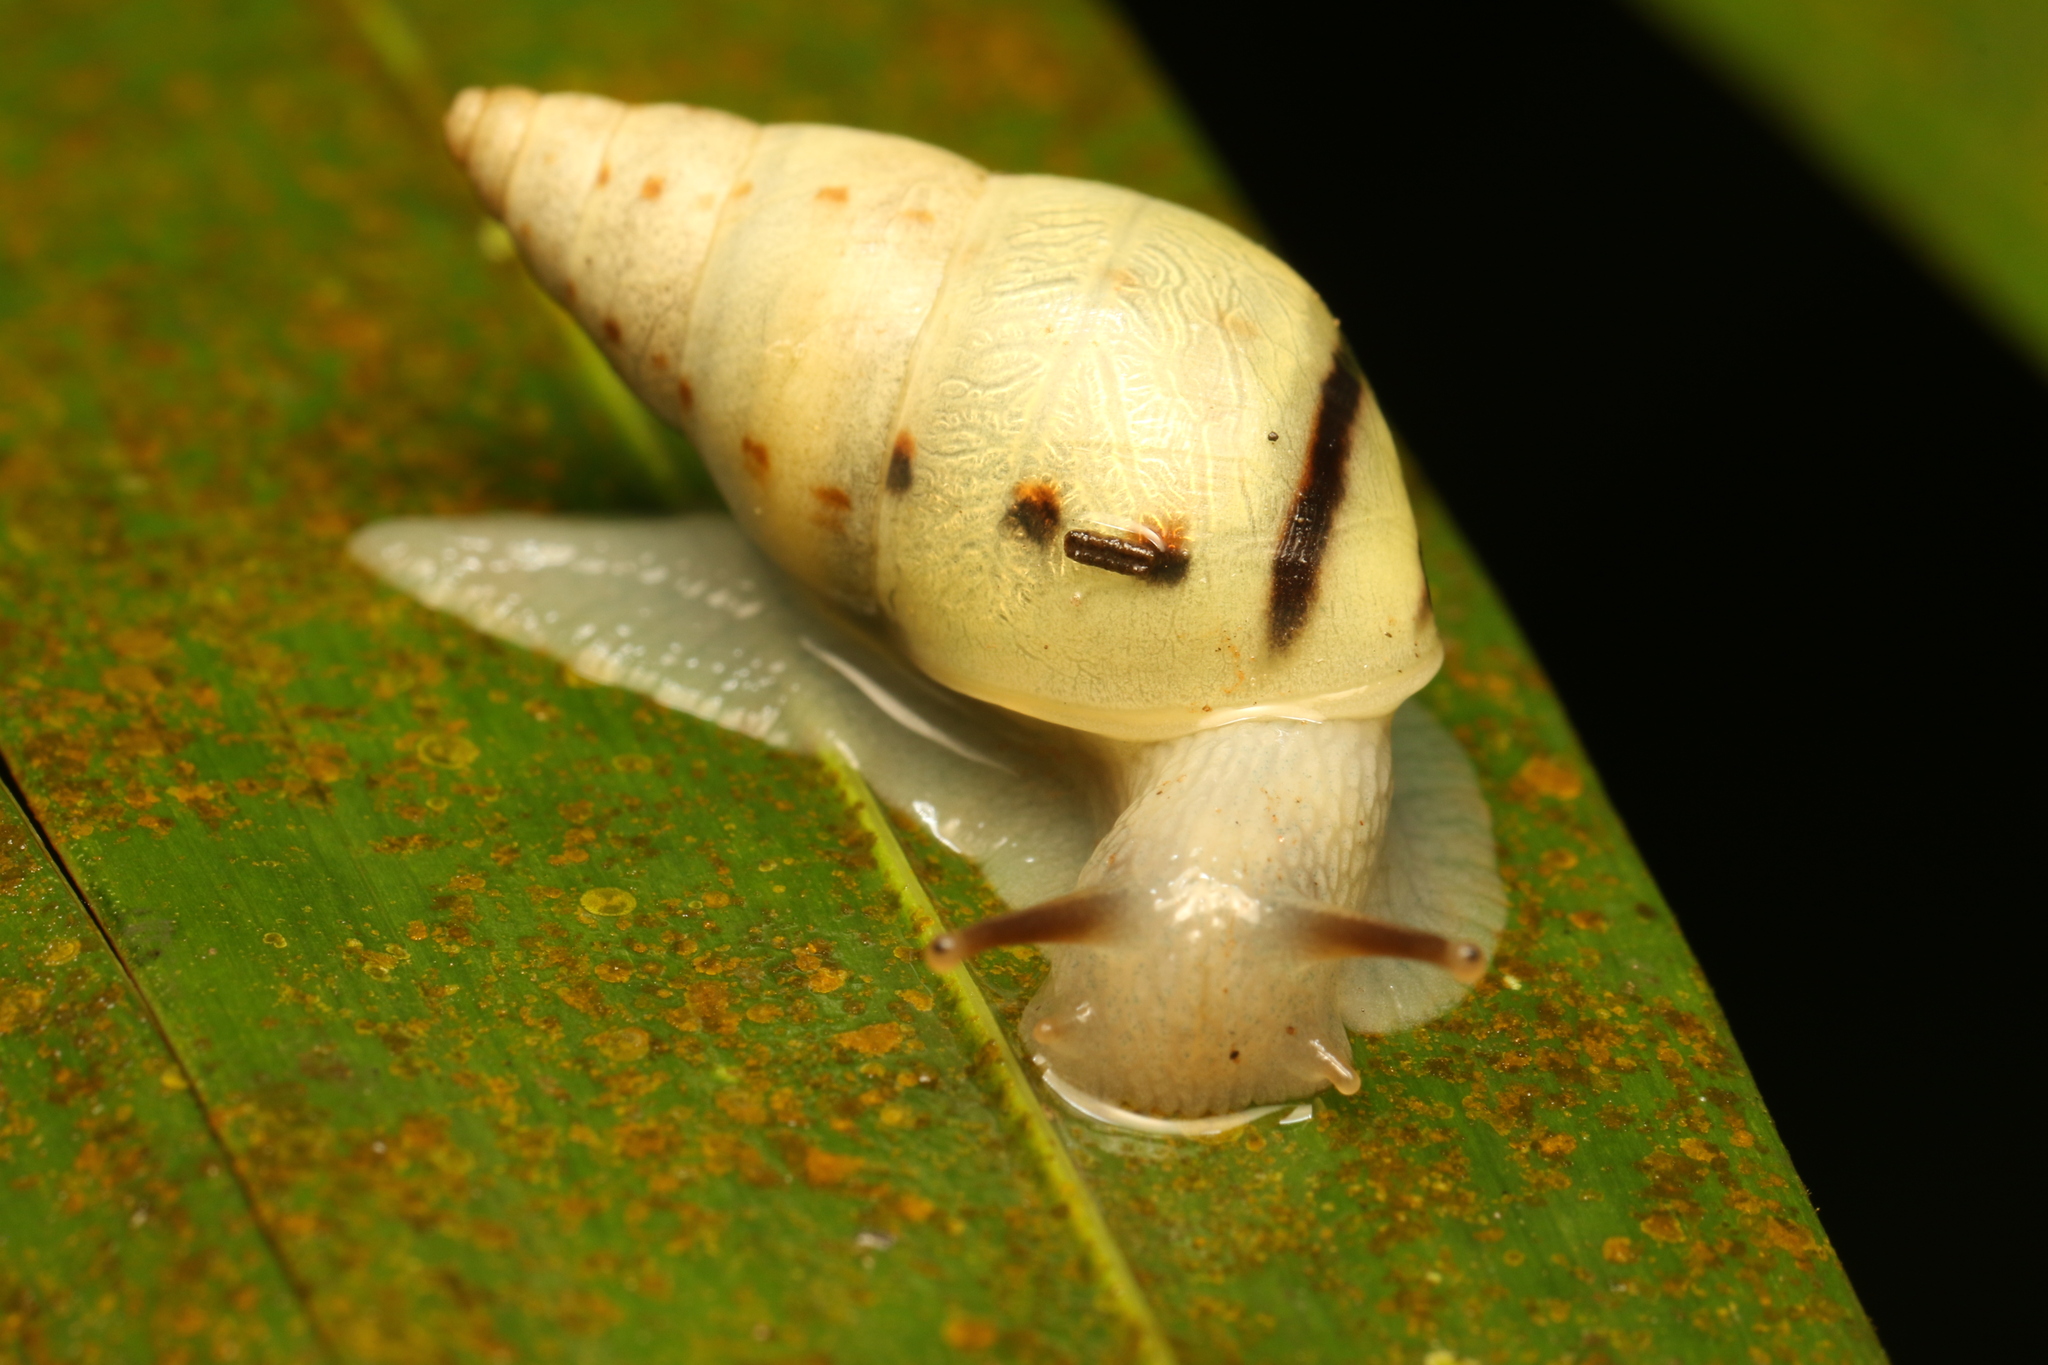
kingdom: Animalia
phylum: Mollusca
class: Gastropoda
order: Stylommatophora
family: Bulimulidae
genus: Drymaeus
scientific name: Drymaeus
